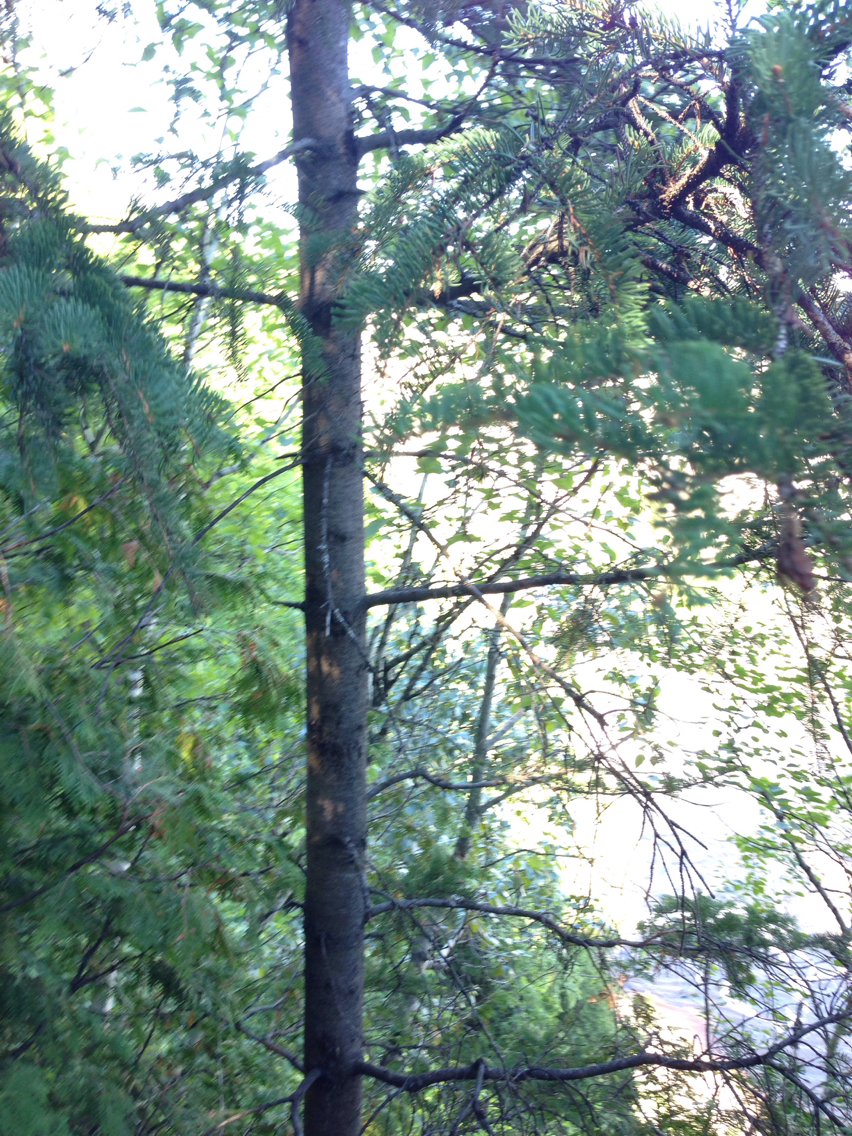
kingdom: Plantae
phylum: Tracheophyta
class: Pinopsida
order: Pinales
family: Pinaceae
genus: Picea
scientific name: Picea glauca
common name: White spruce
